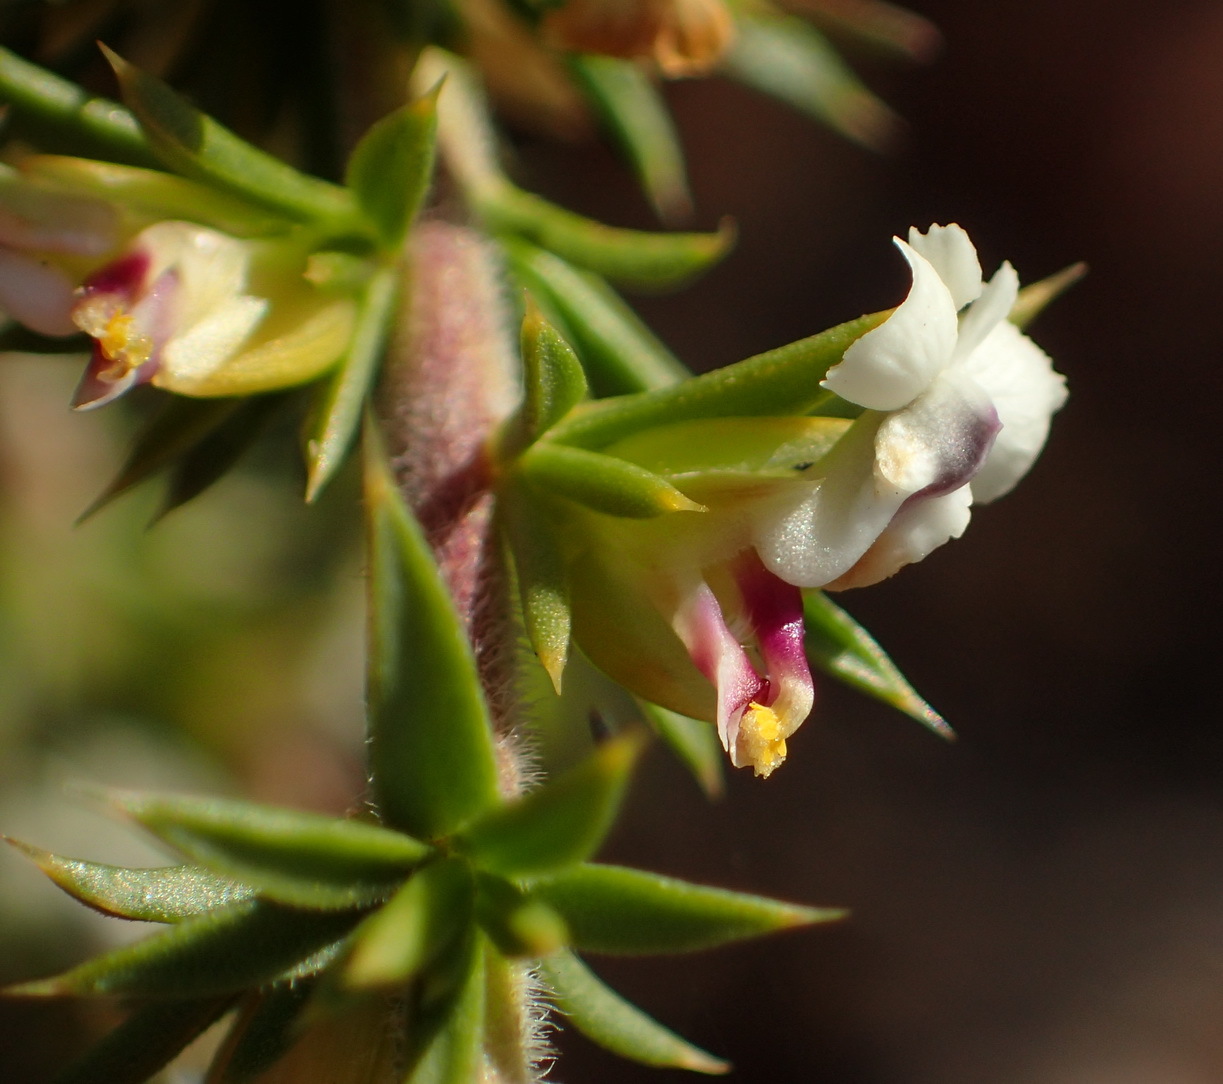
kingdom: Plantae
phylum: Tracheophyta
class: Magnoliopsida
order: Fabales
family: Polygalaceae
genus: Muraltia
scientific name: Muraltia ericifolia
